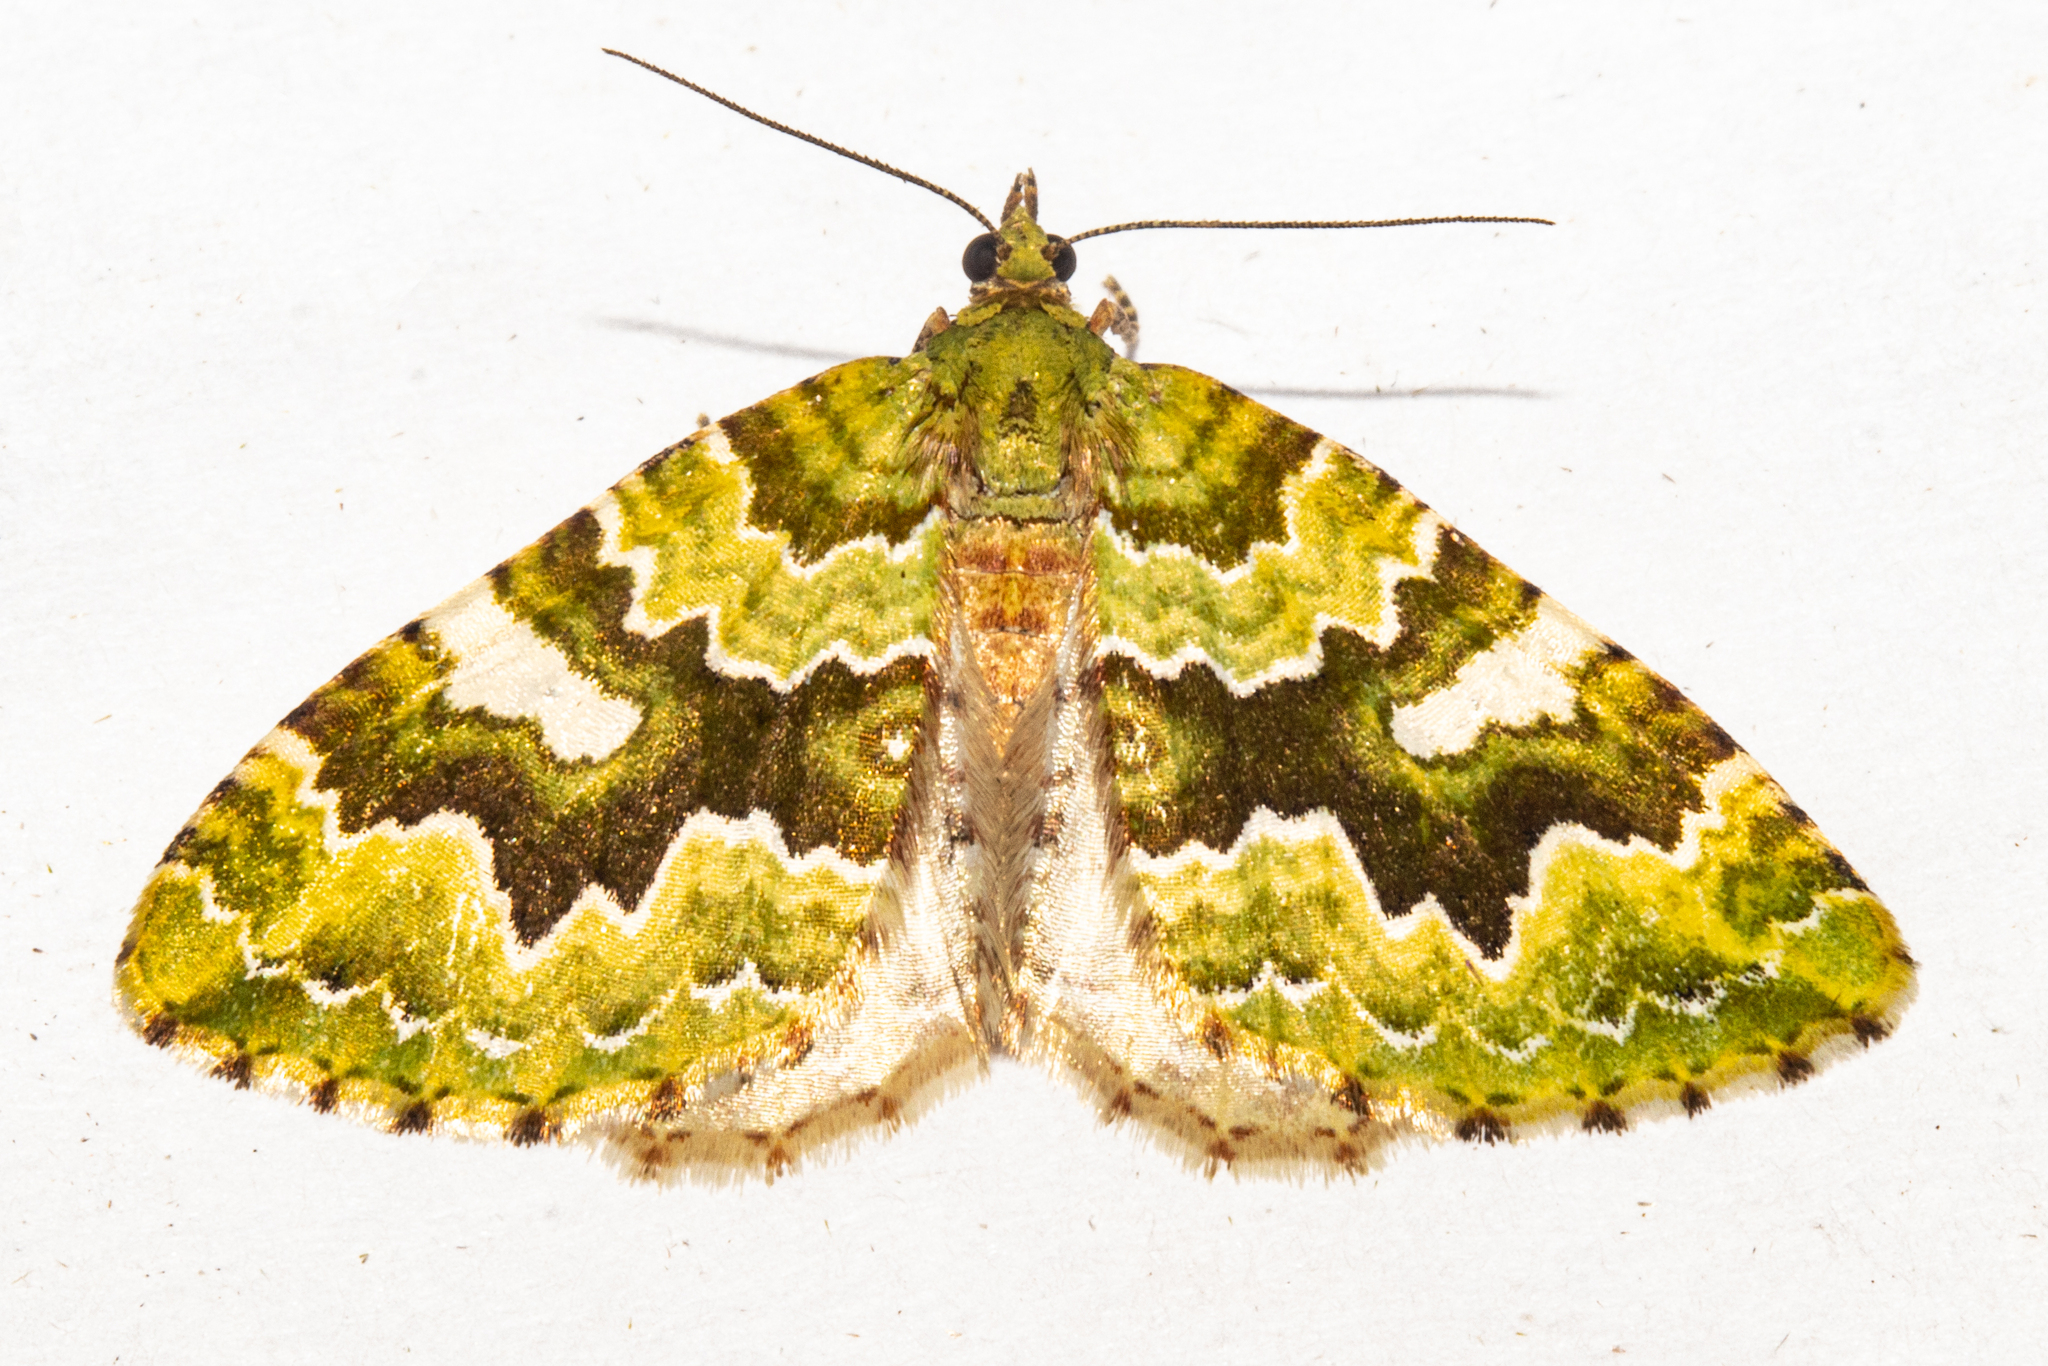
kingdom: Animalia
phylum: Arthropoda
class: Insecta
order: Lepidoptera
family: Geometridae
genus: Asaphodes
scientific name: Asaphodes philpotti
